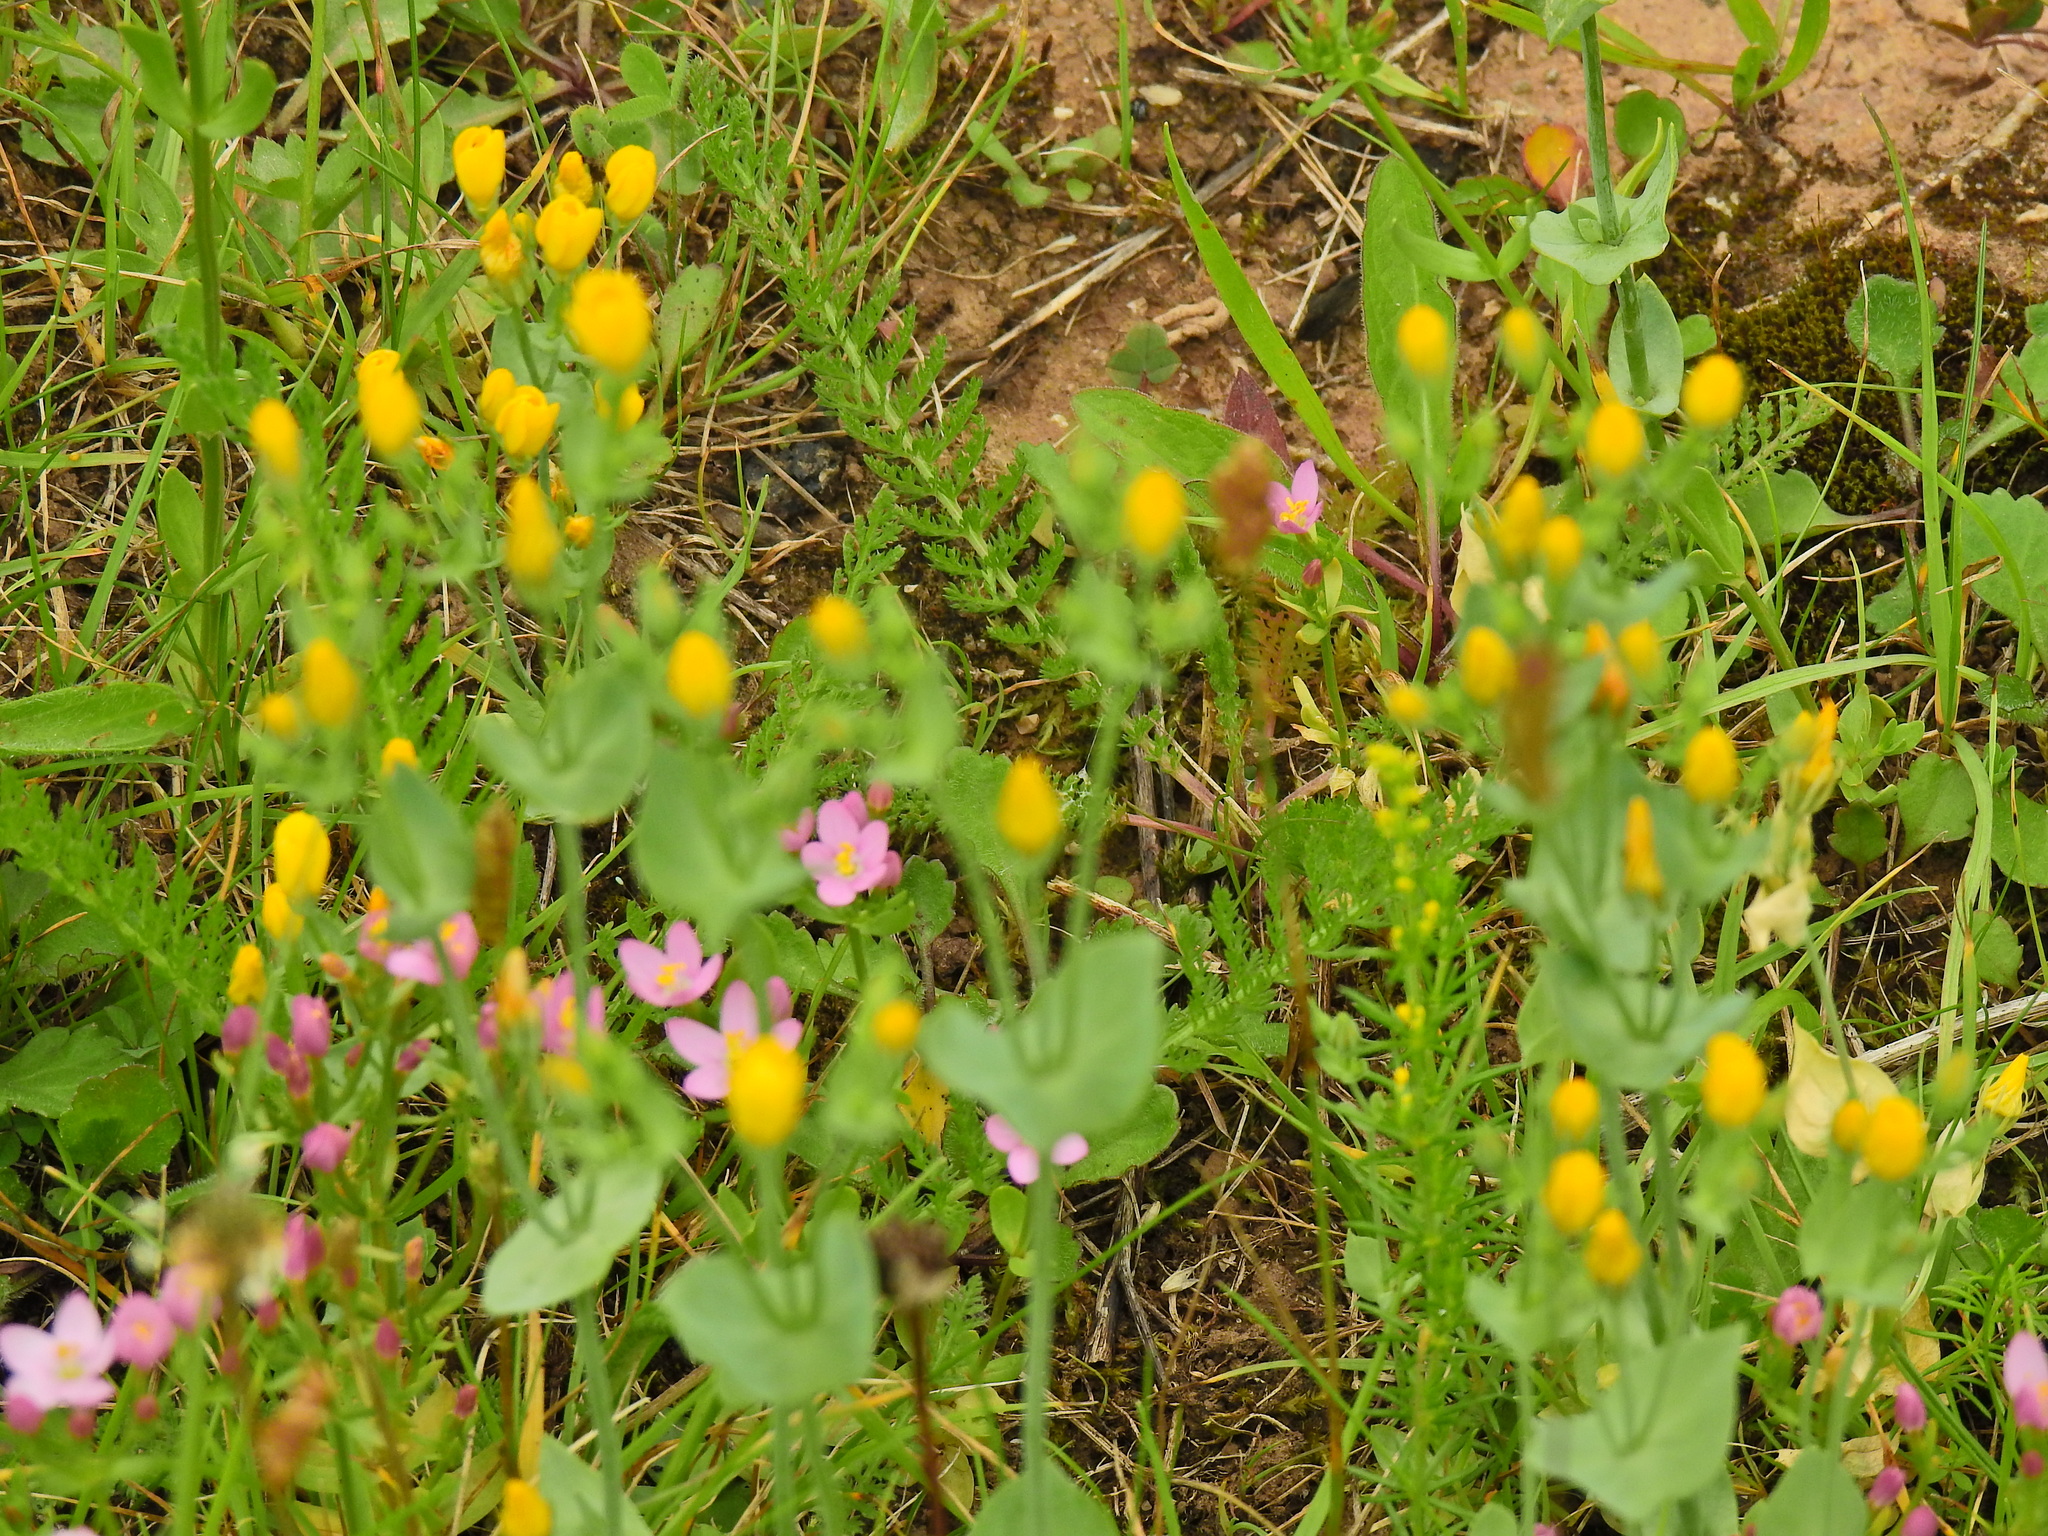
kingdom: Plantae
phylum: Tracheophyta
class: Magnoliopsida
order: Gentianales
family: Gentianaceae
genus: Blackstonia
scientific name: Blackstonia perfoliata
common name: Yellow-wort
